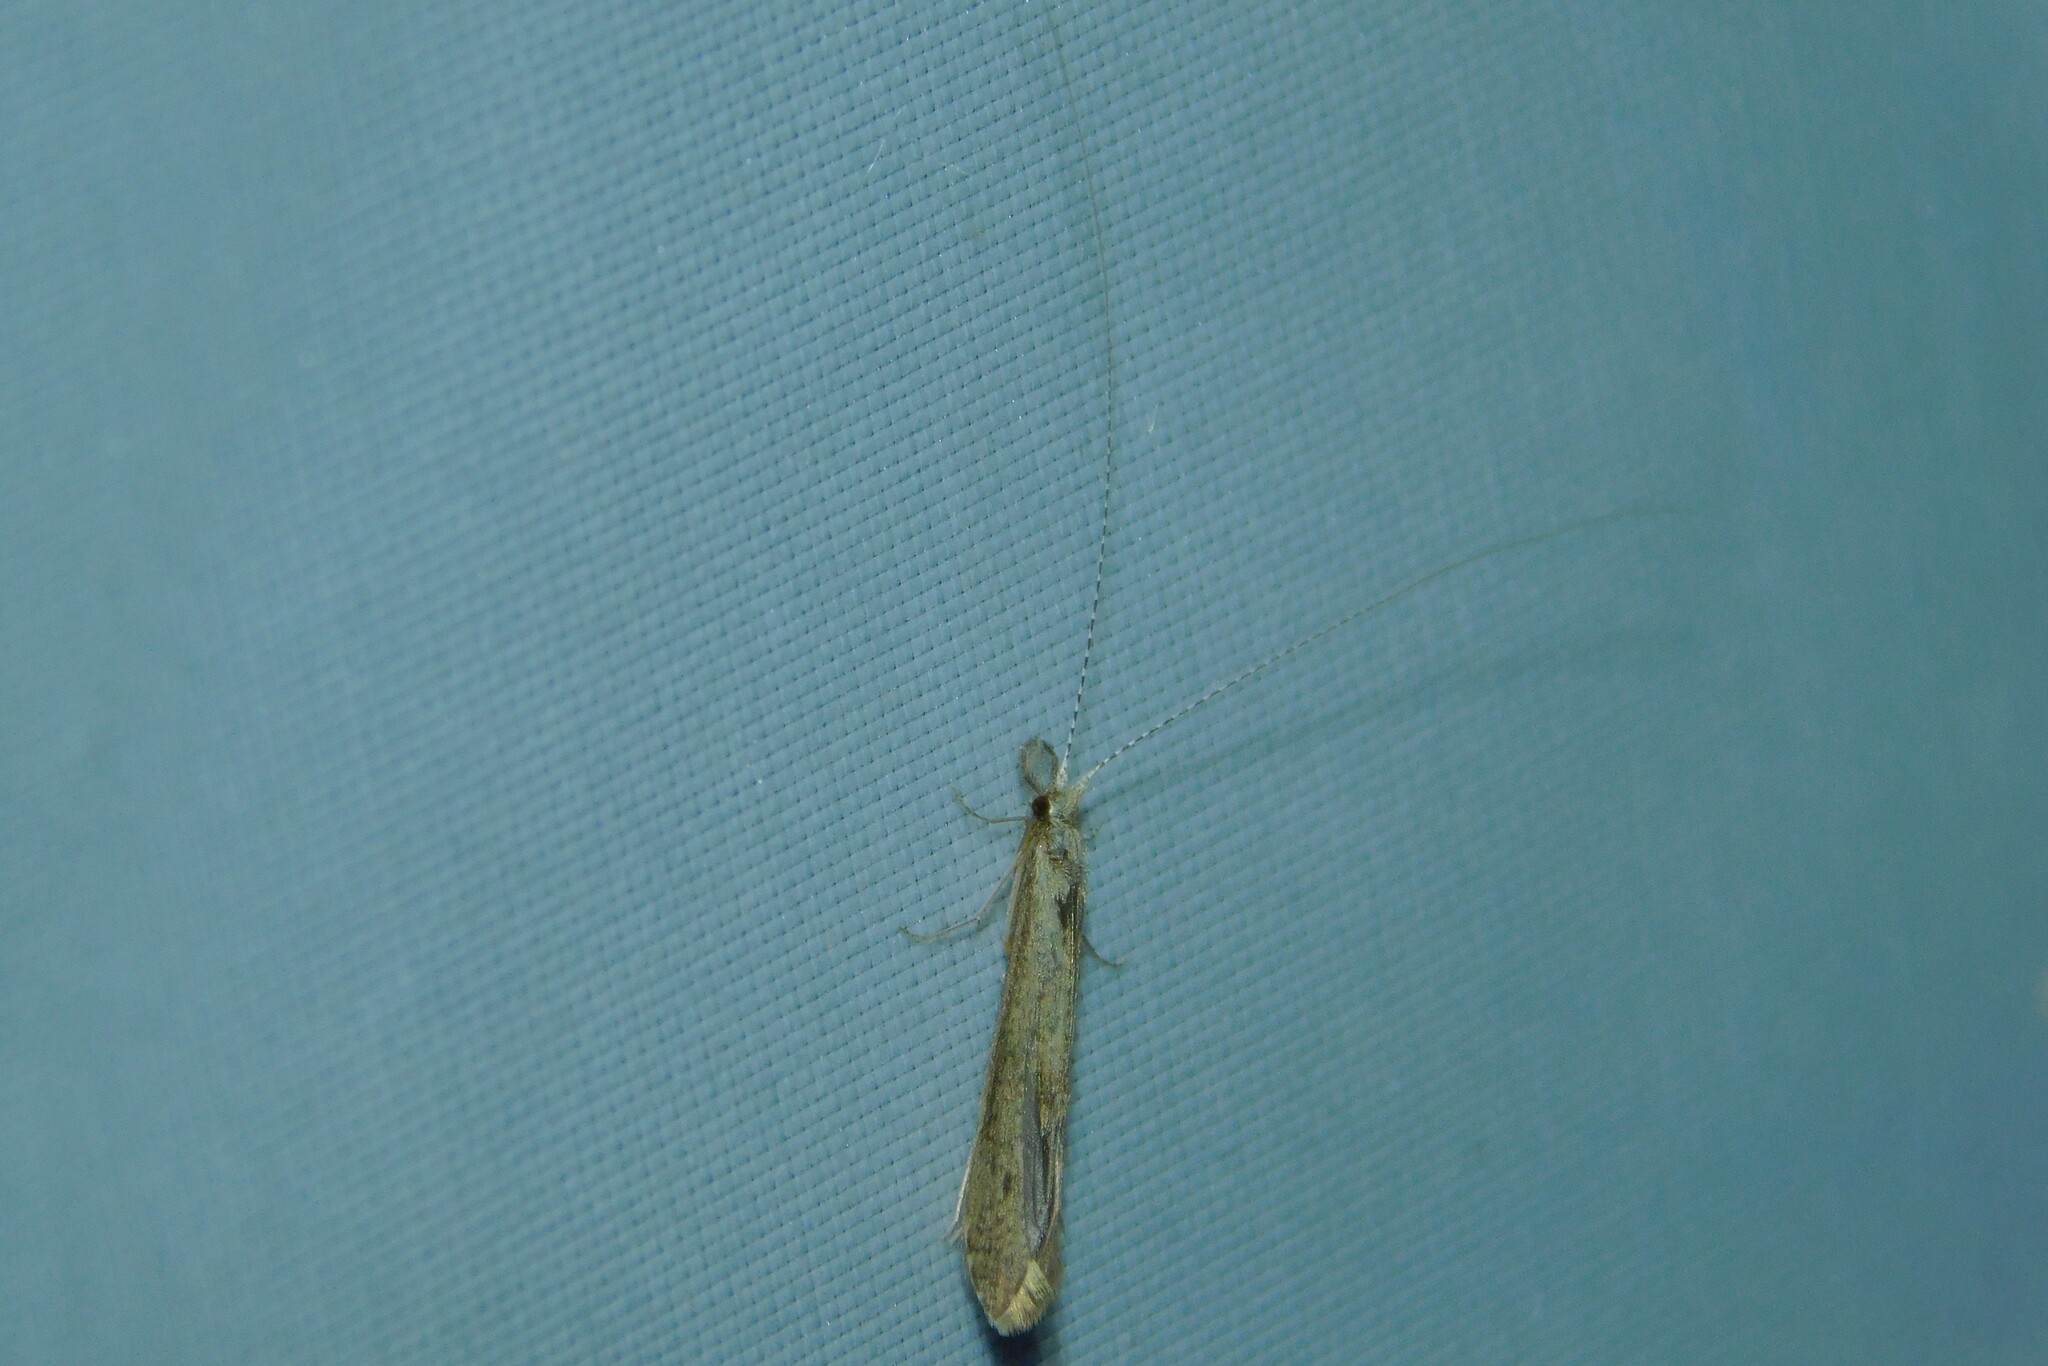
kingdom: Animalia
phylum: Arthropoda
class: Insecta
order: Trichoptera
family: Leptoceridae
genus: Leptocerus
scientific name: Leptocerus tineiformis
